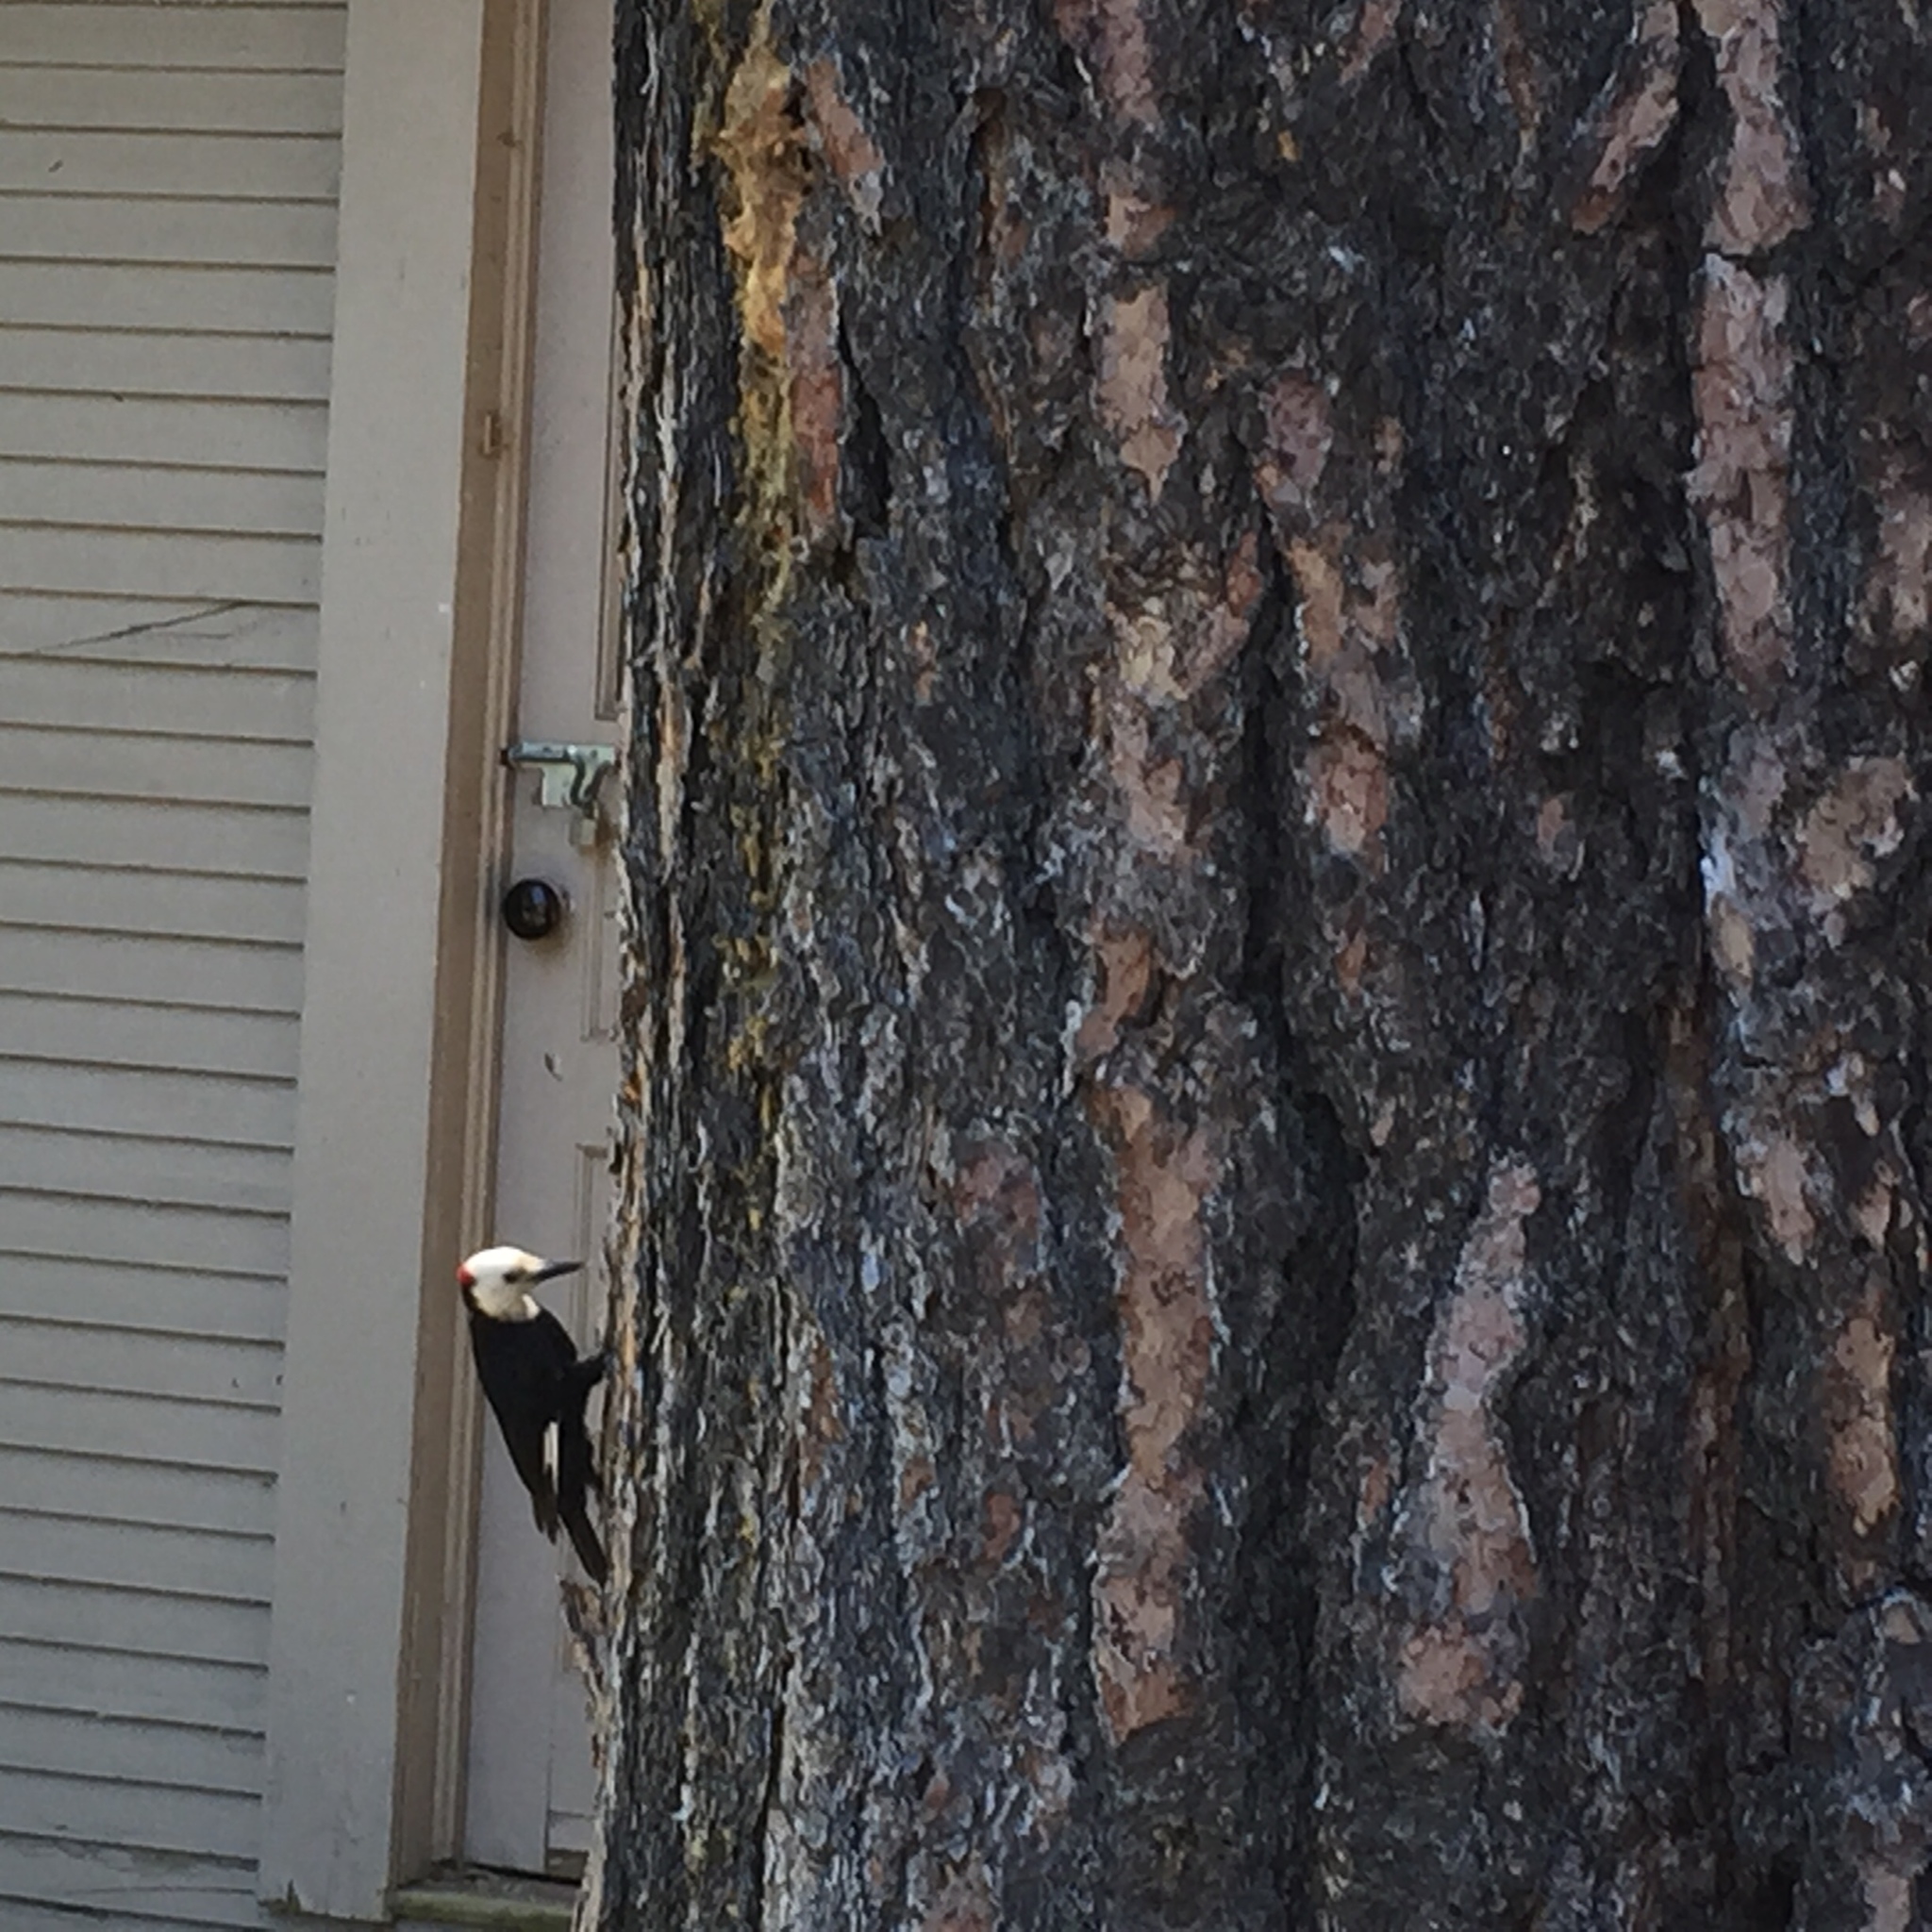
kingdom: Animalia
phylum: Chordata
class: Aves
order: Piciformes
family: Picidae
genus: Leuconotopicus
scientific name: Leuconotopicus albolarvatus
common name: White-headed woodpecker
